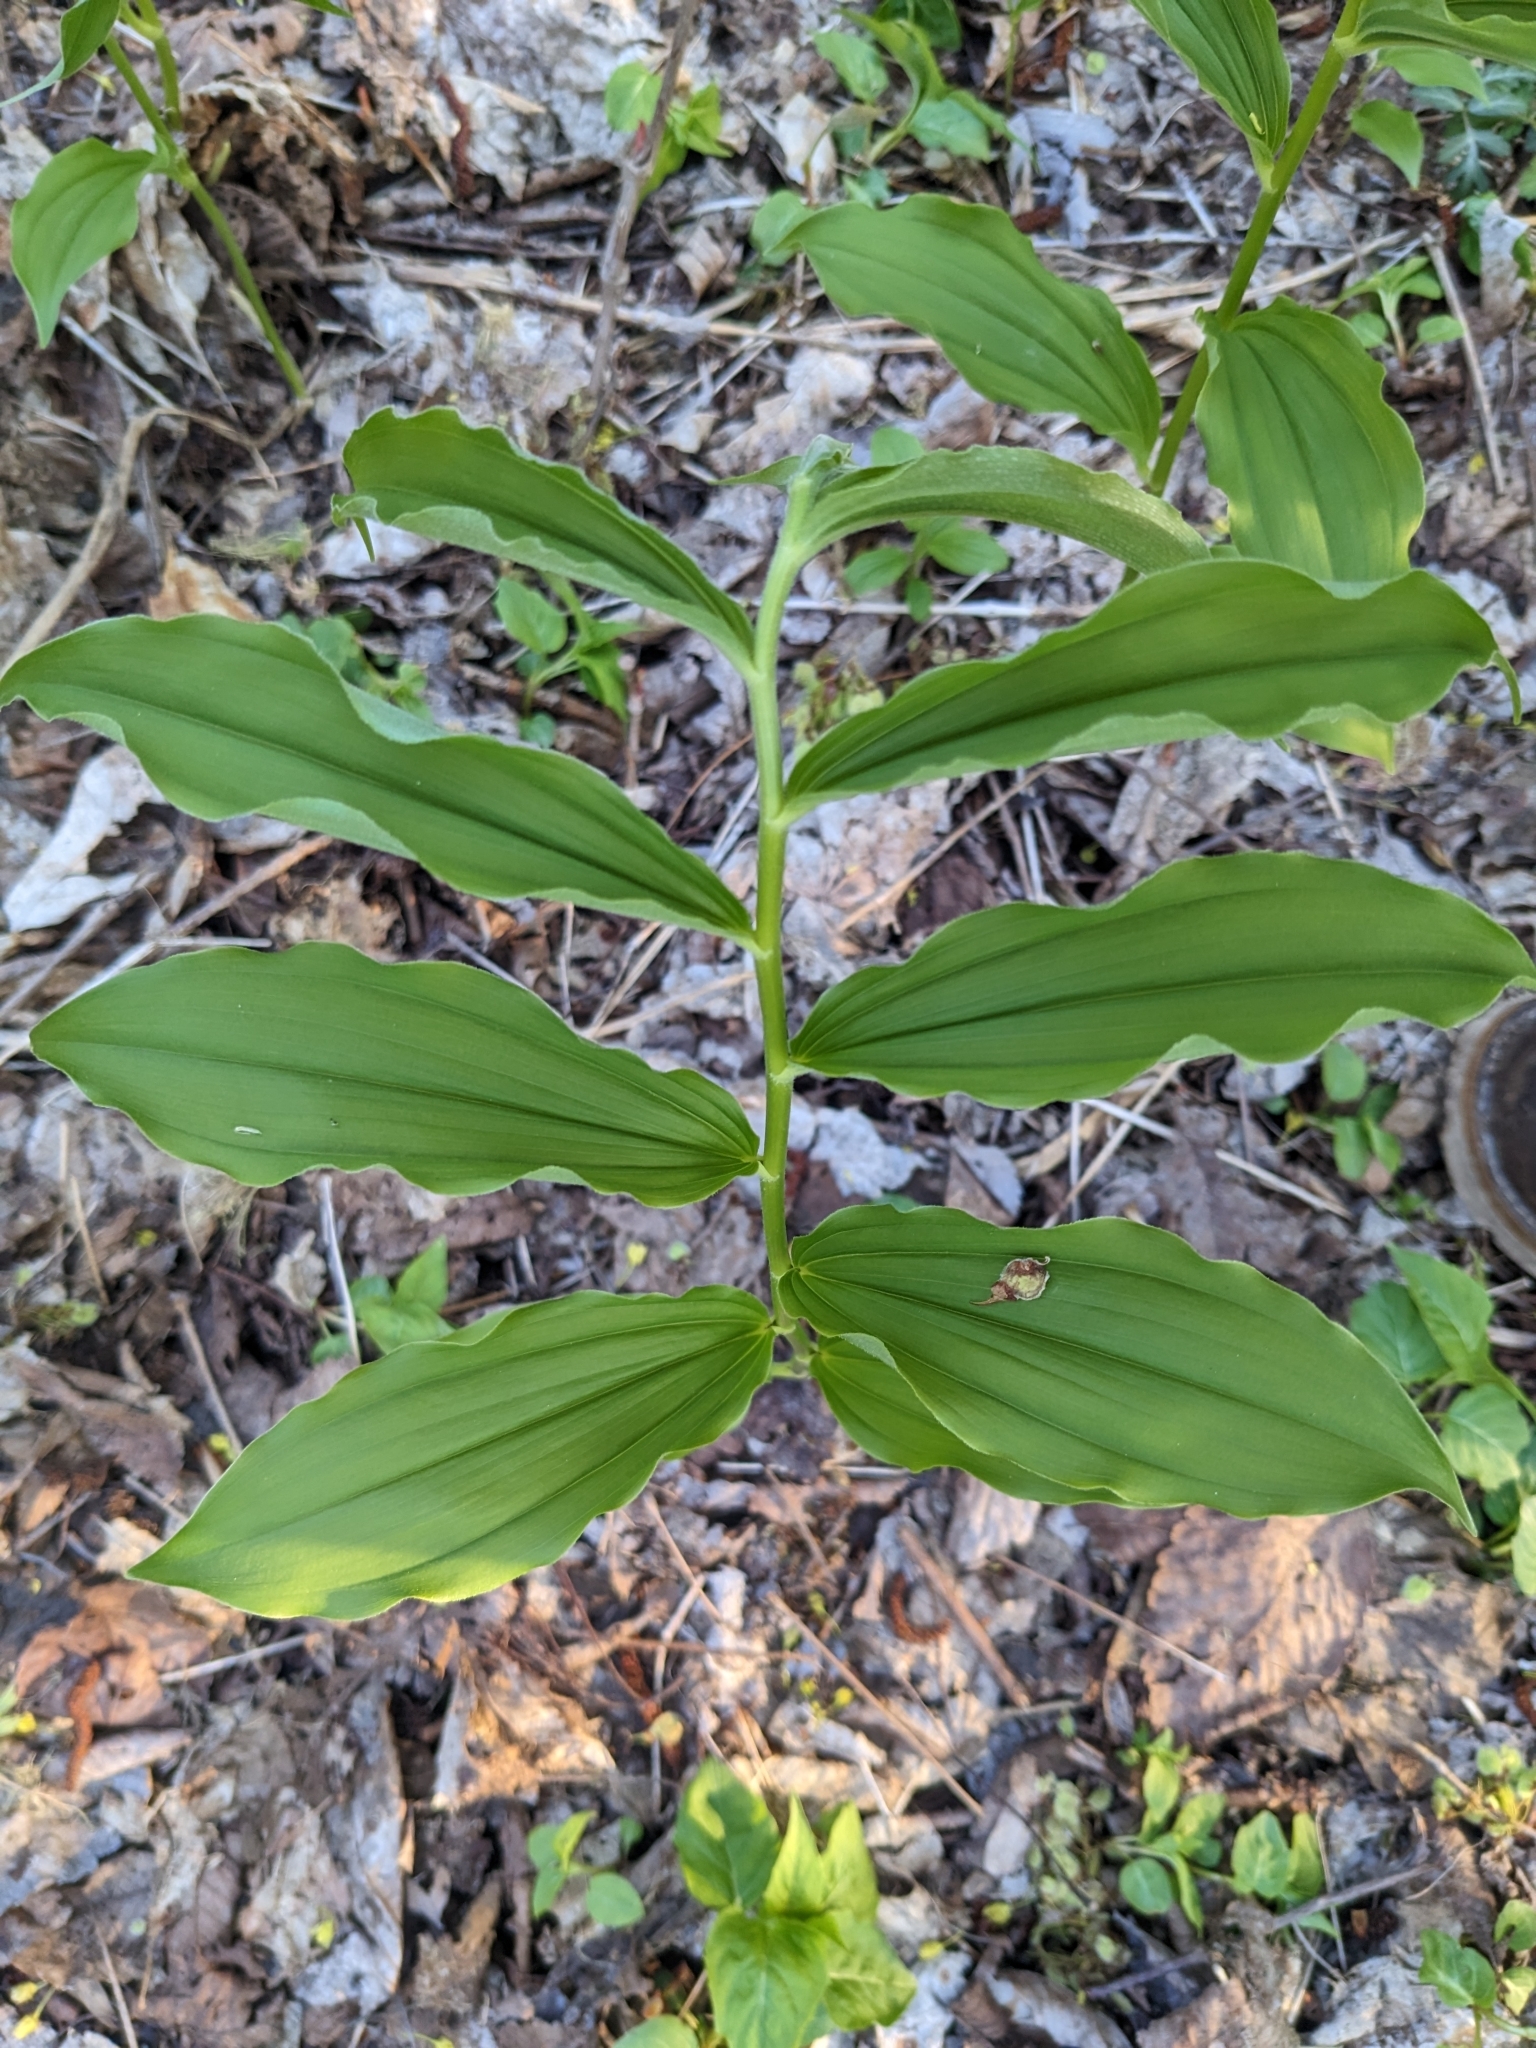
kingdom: Plantae
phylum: Tracheophyta
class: Liliopsida
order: Asparagales
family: Asparagaceae
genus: Maianthemum
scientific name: Maianthemum racemosum
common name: False spikenard
